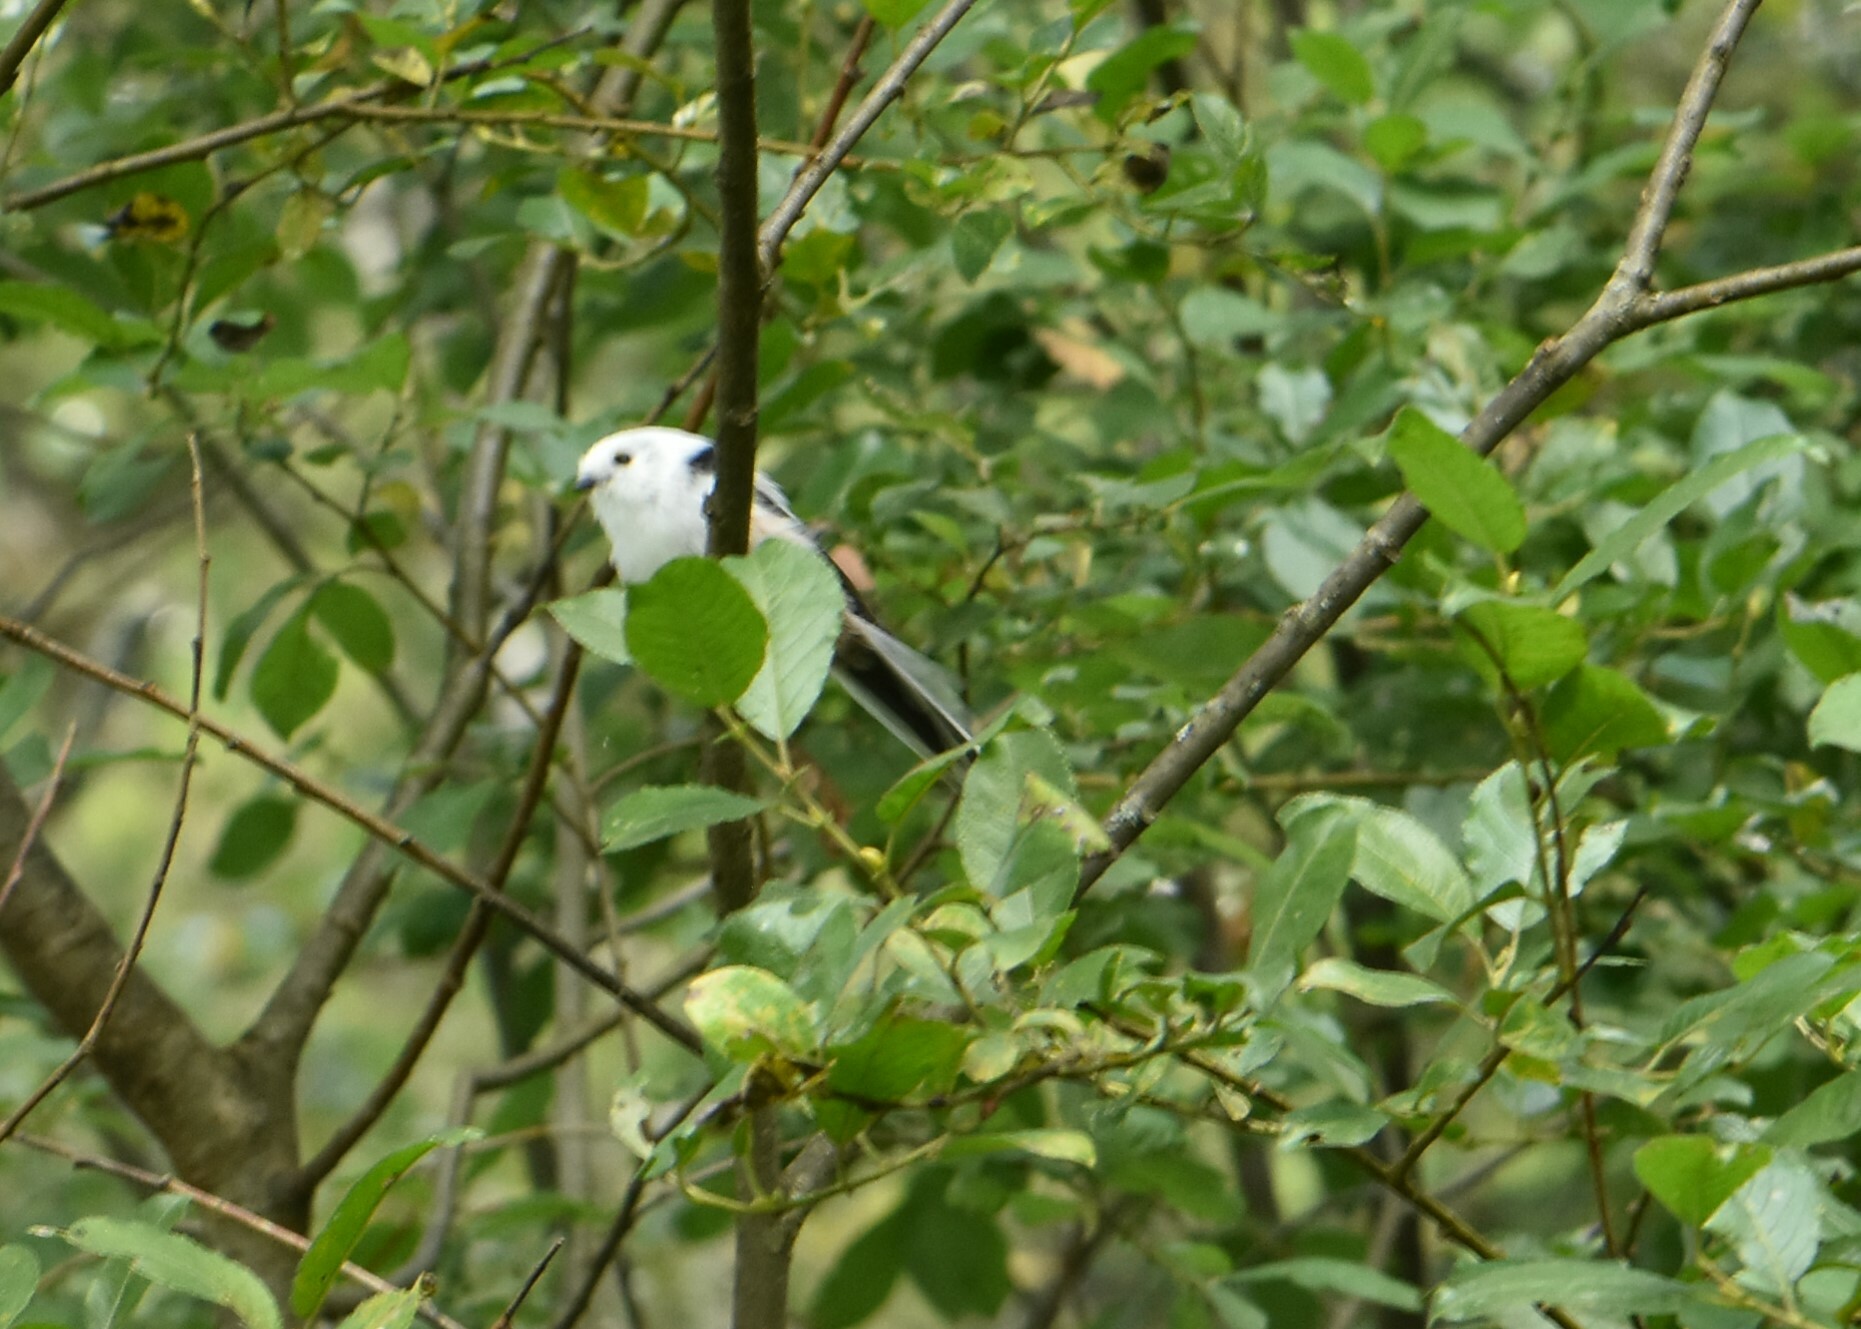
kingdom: Animalia
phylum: Chordata
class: Aves
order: Passeriformes
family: Aegithalidae
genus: Aegithalos
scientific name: Aegithalos caudatus
